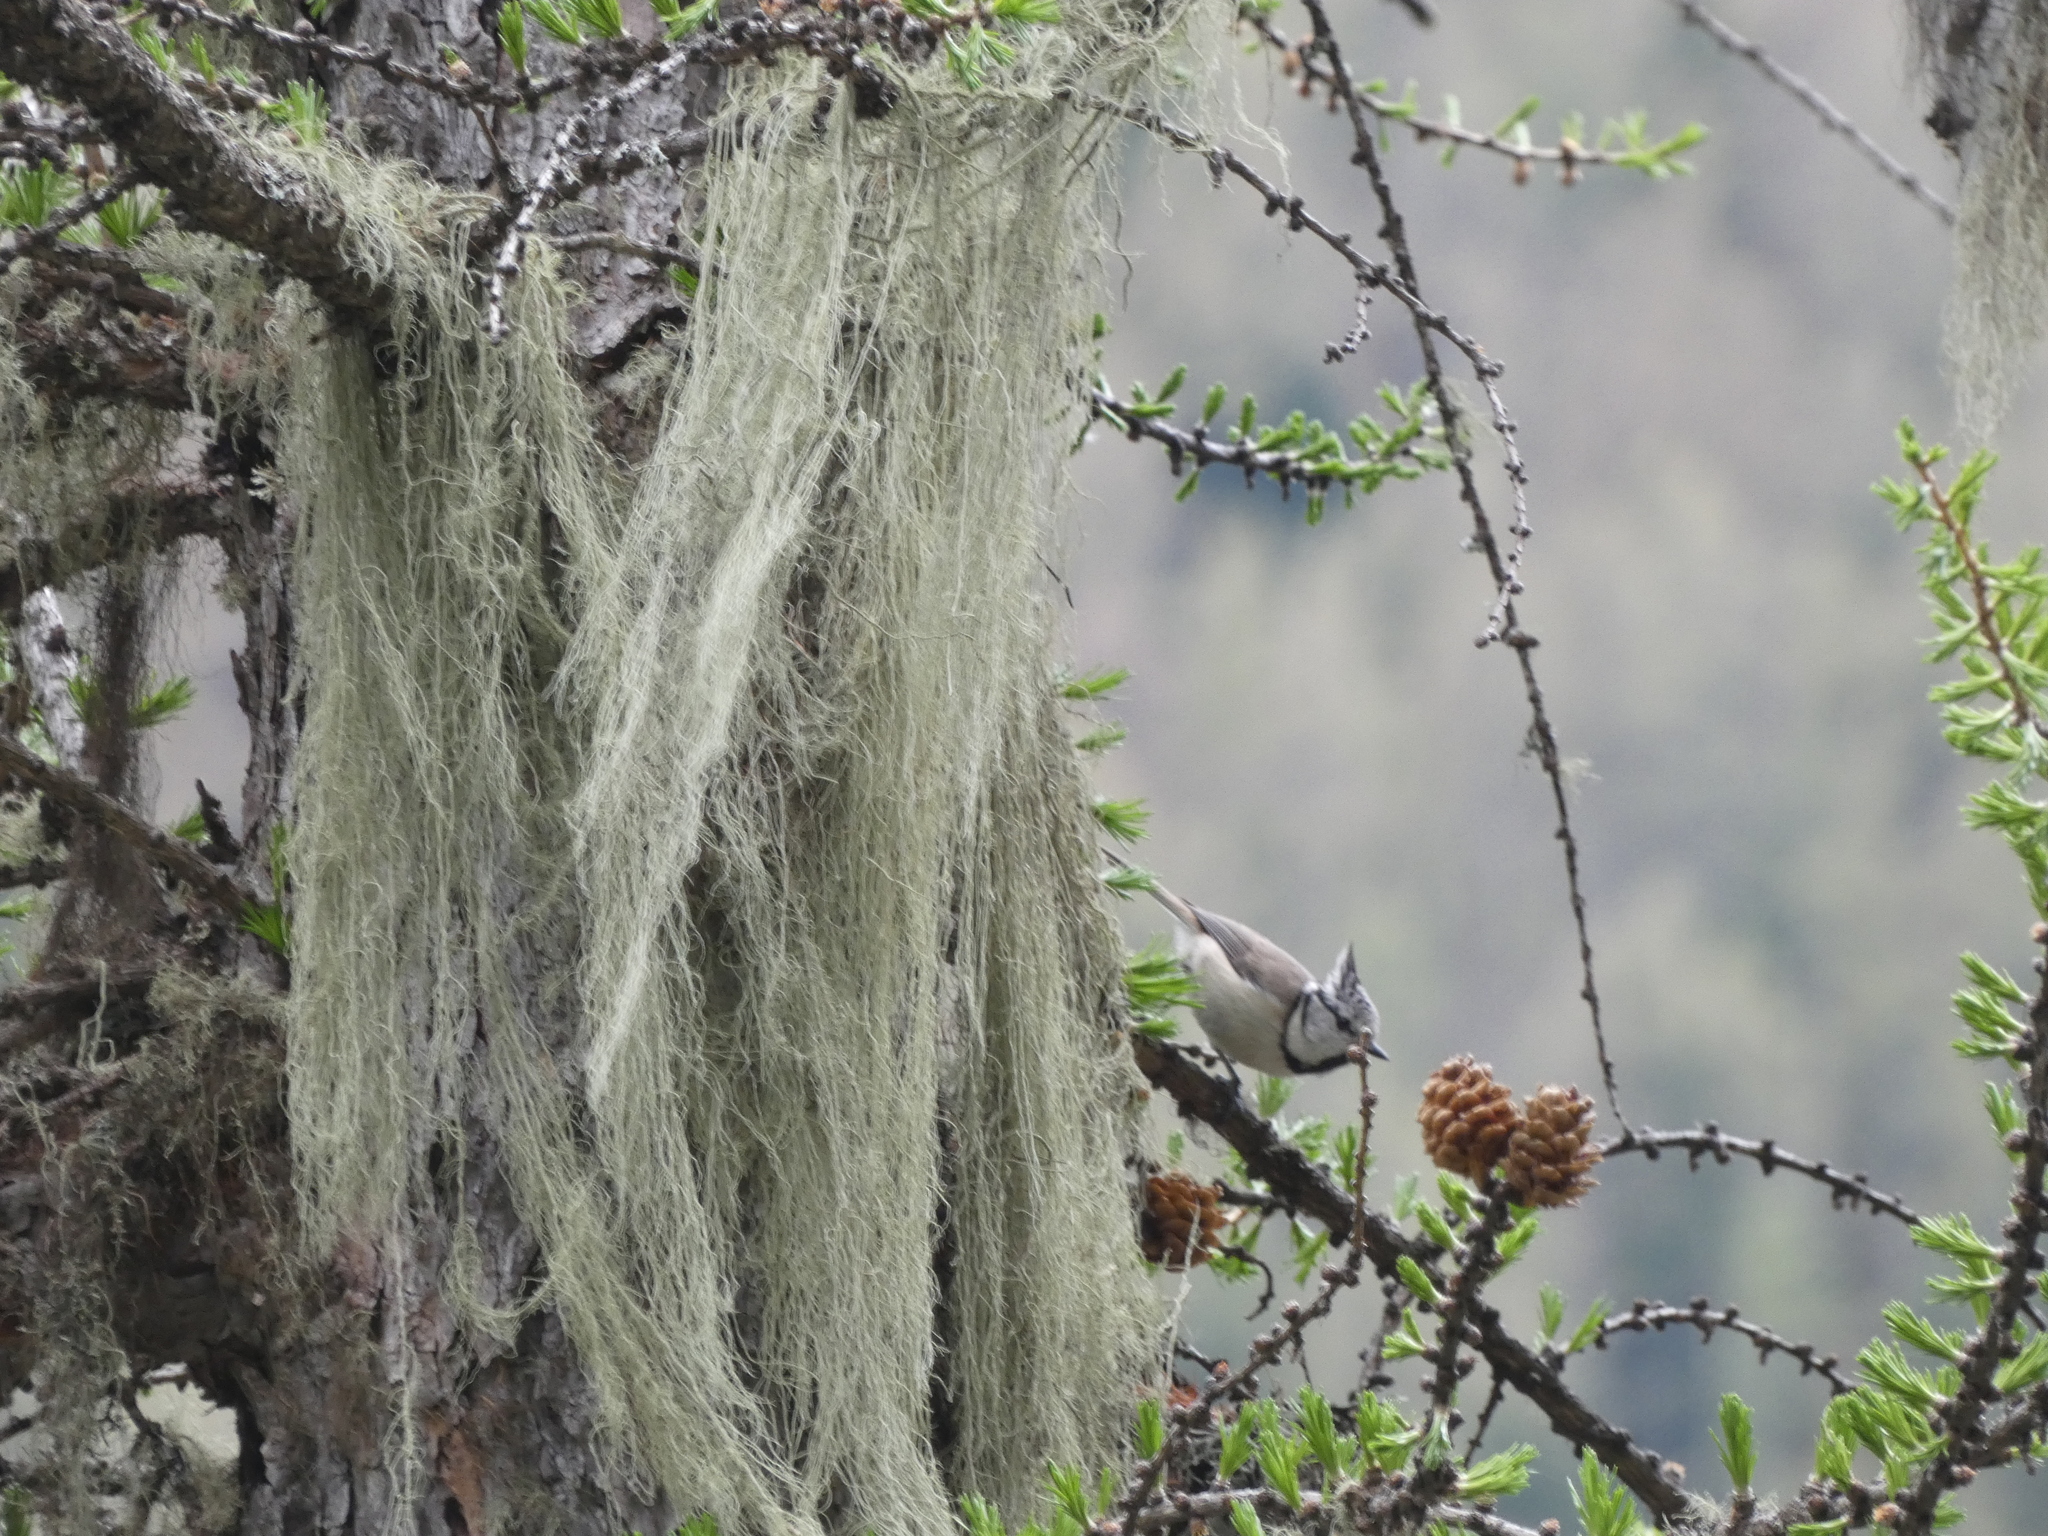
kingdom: Animalia
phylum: Chordata
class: Aves
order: Passeriformes
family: Paridae
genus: Lophophanes
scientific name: Lophophanes cristatus
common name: European crested tit
